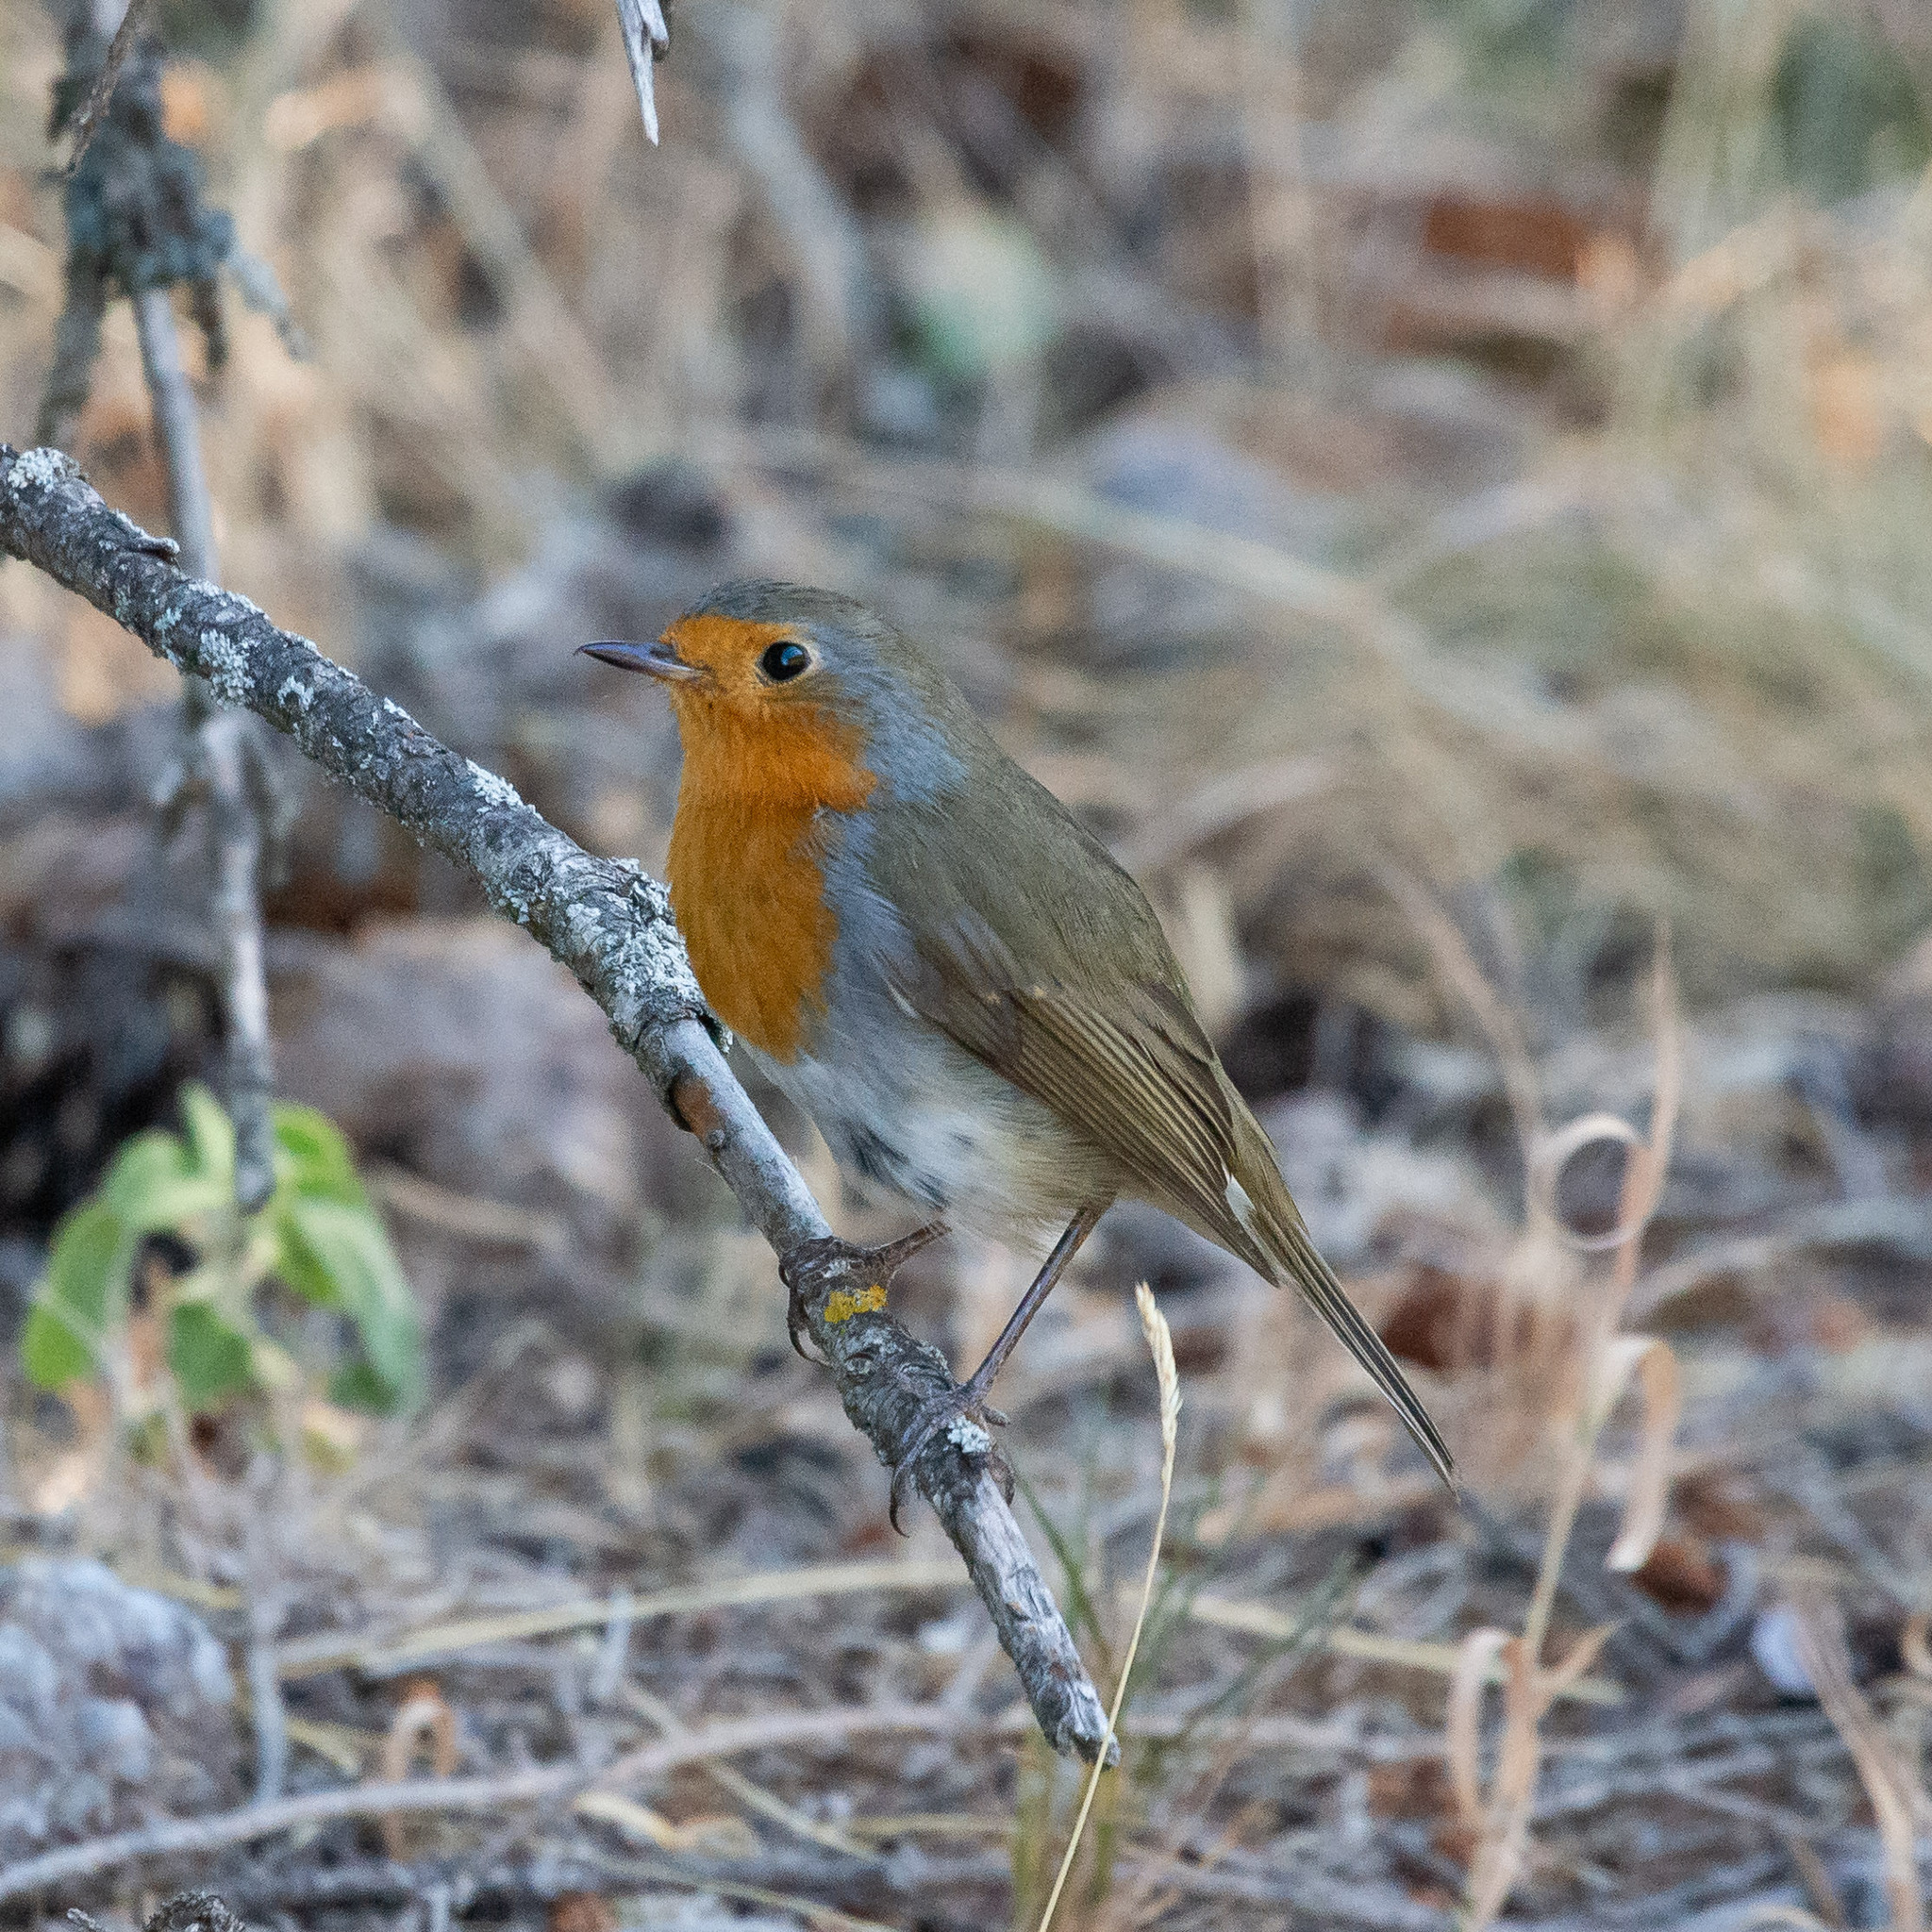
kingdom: Animalia
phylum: Chordata
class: Aves
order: Passeriformes
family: Muscicapidae
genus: Erithacus
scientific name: Erithacus rubecula
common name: European robin
